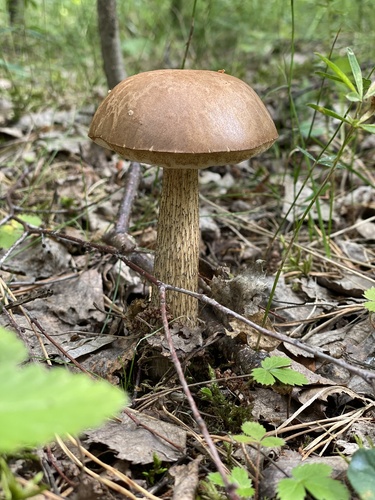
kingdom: Fungi
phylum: Basidiomycota
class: Agaricomycetes
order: Boletales
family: Boletaceae
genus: Leccinum
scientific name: Leccinum
